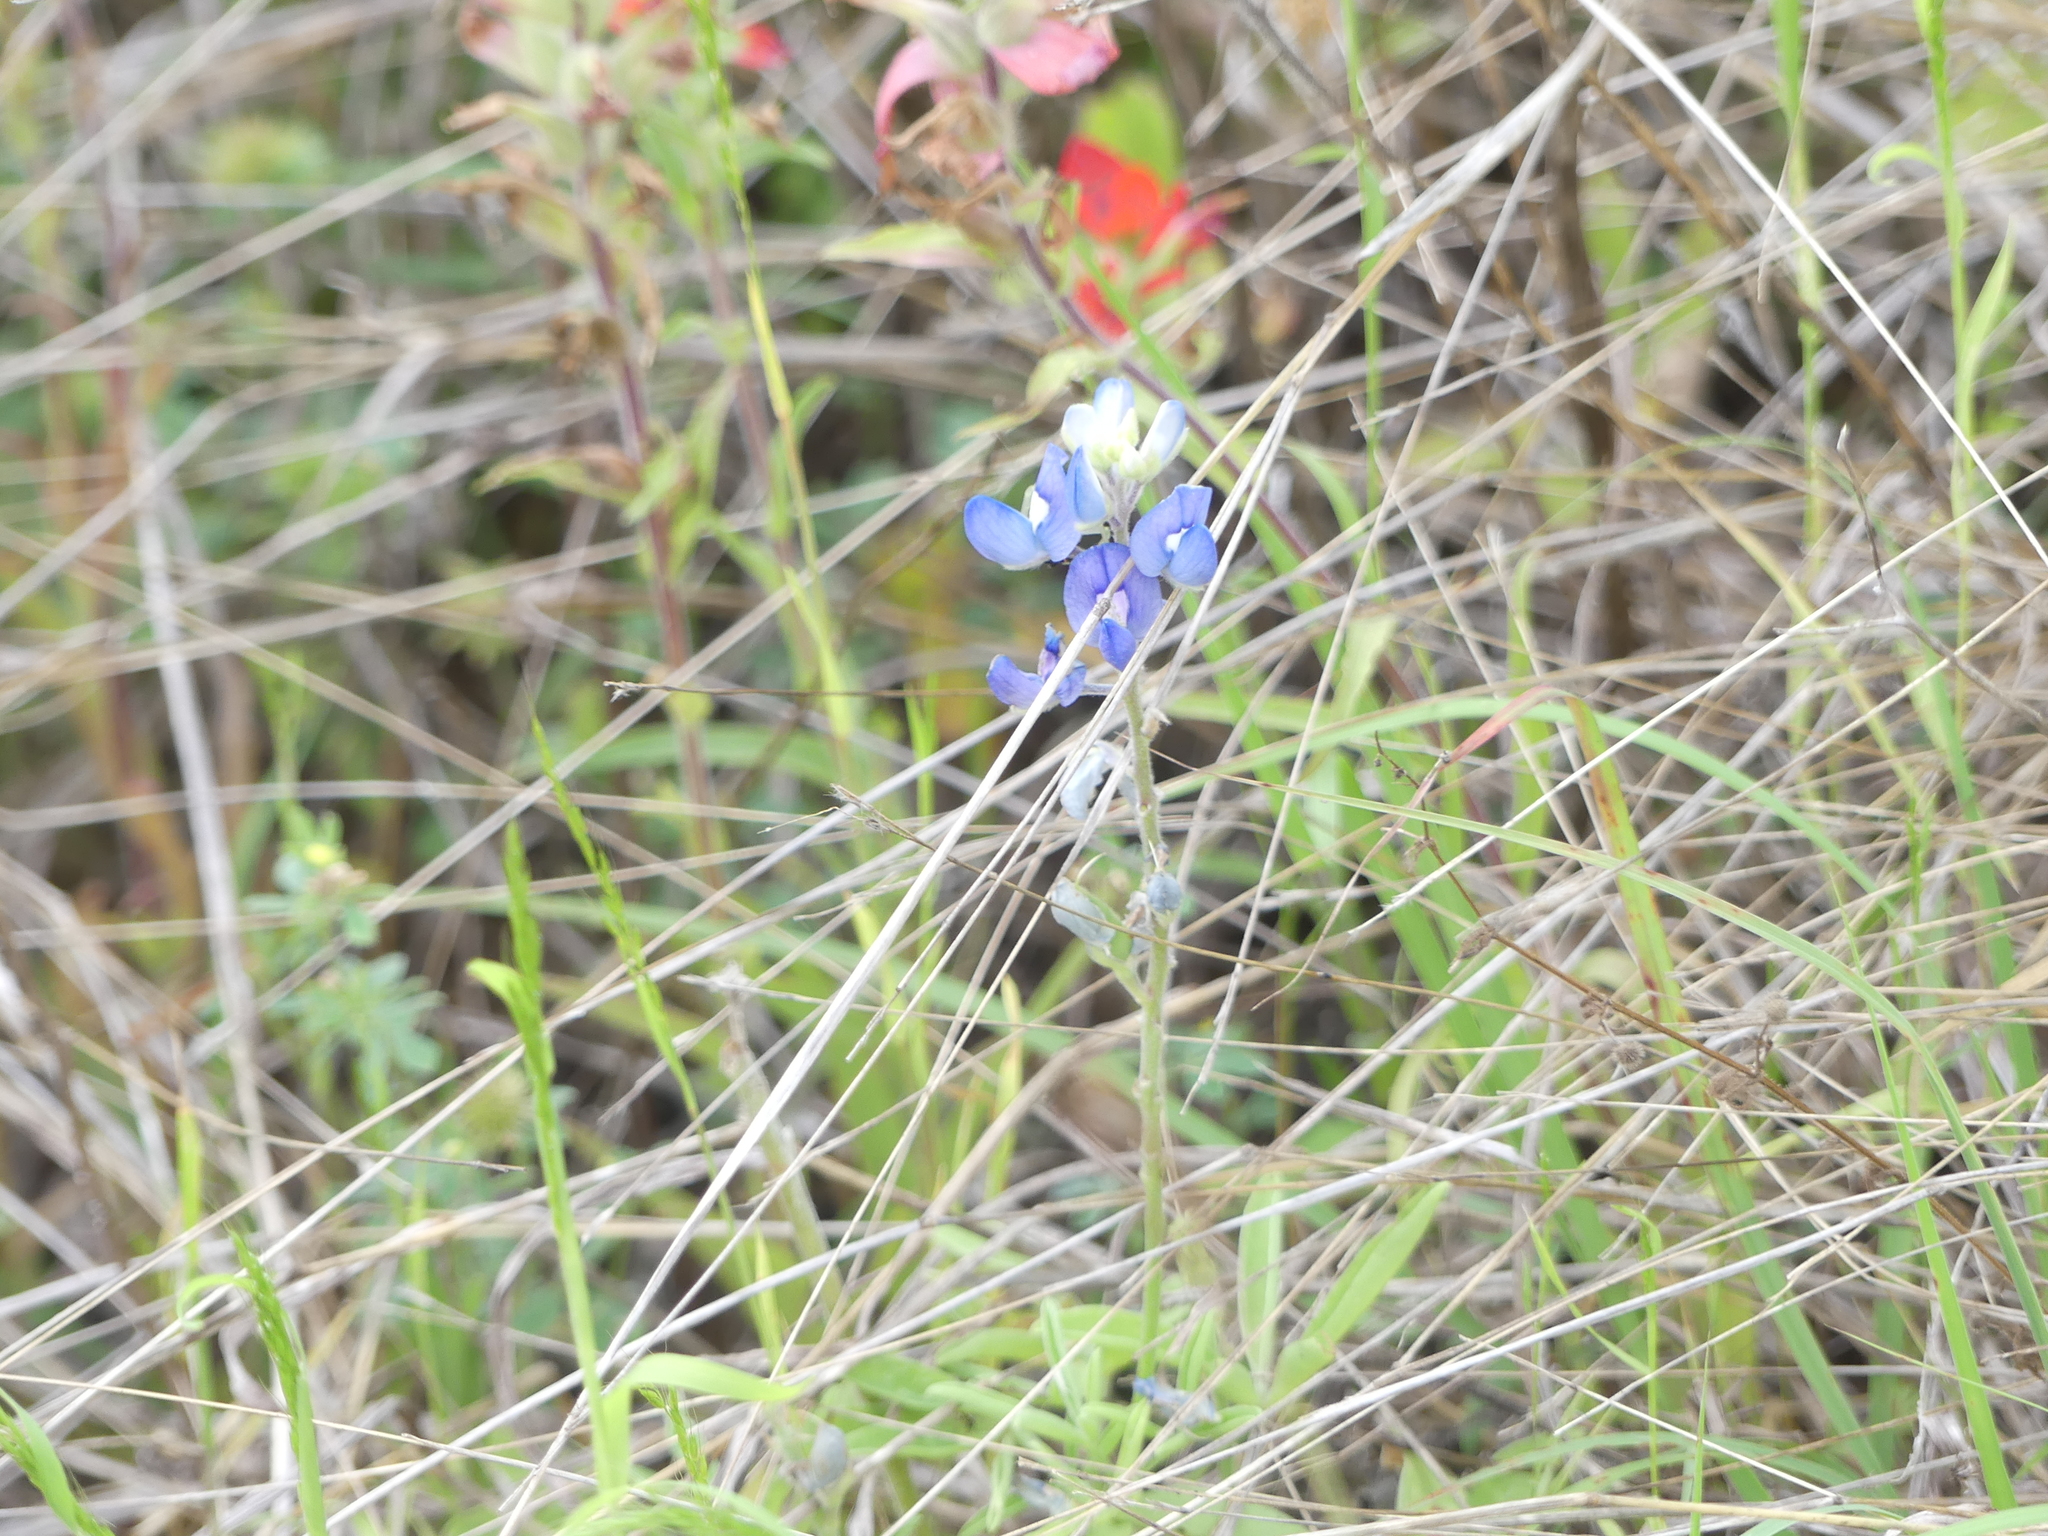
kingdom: Plantae
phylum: Tracheophyta
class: Magnoliopsida
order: Fabales
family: Fabaceae
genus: Lupinus
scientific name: Lupinus texensis
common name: Texas bluebonnet
